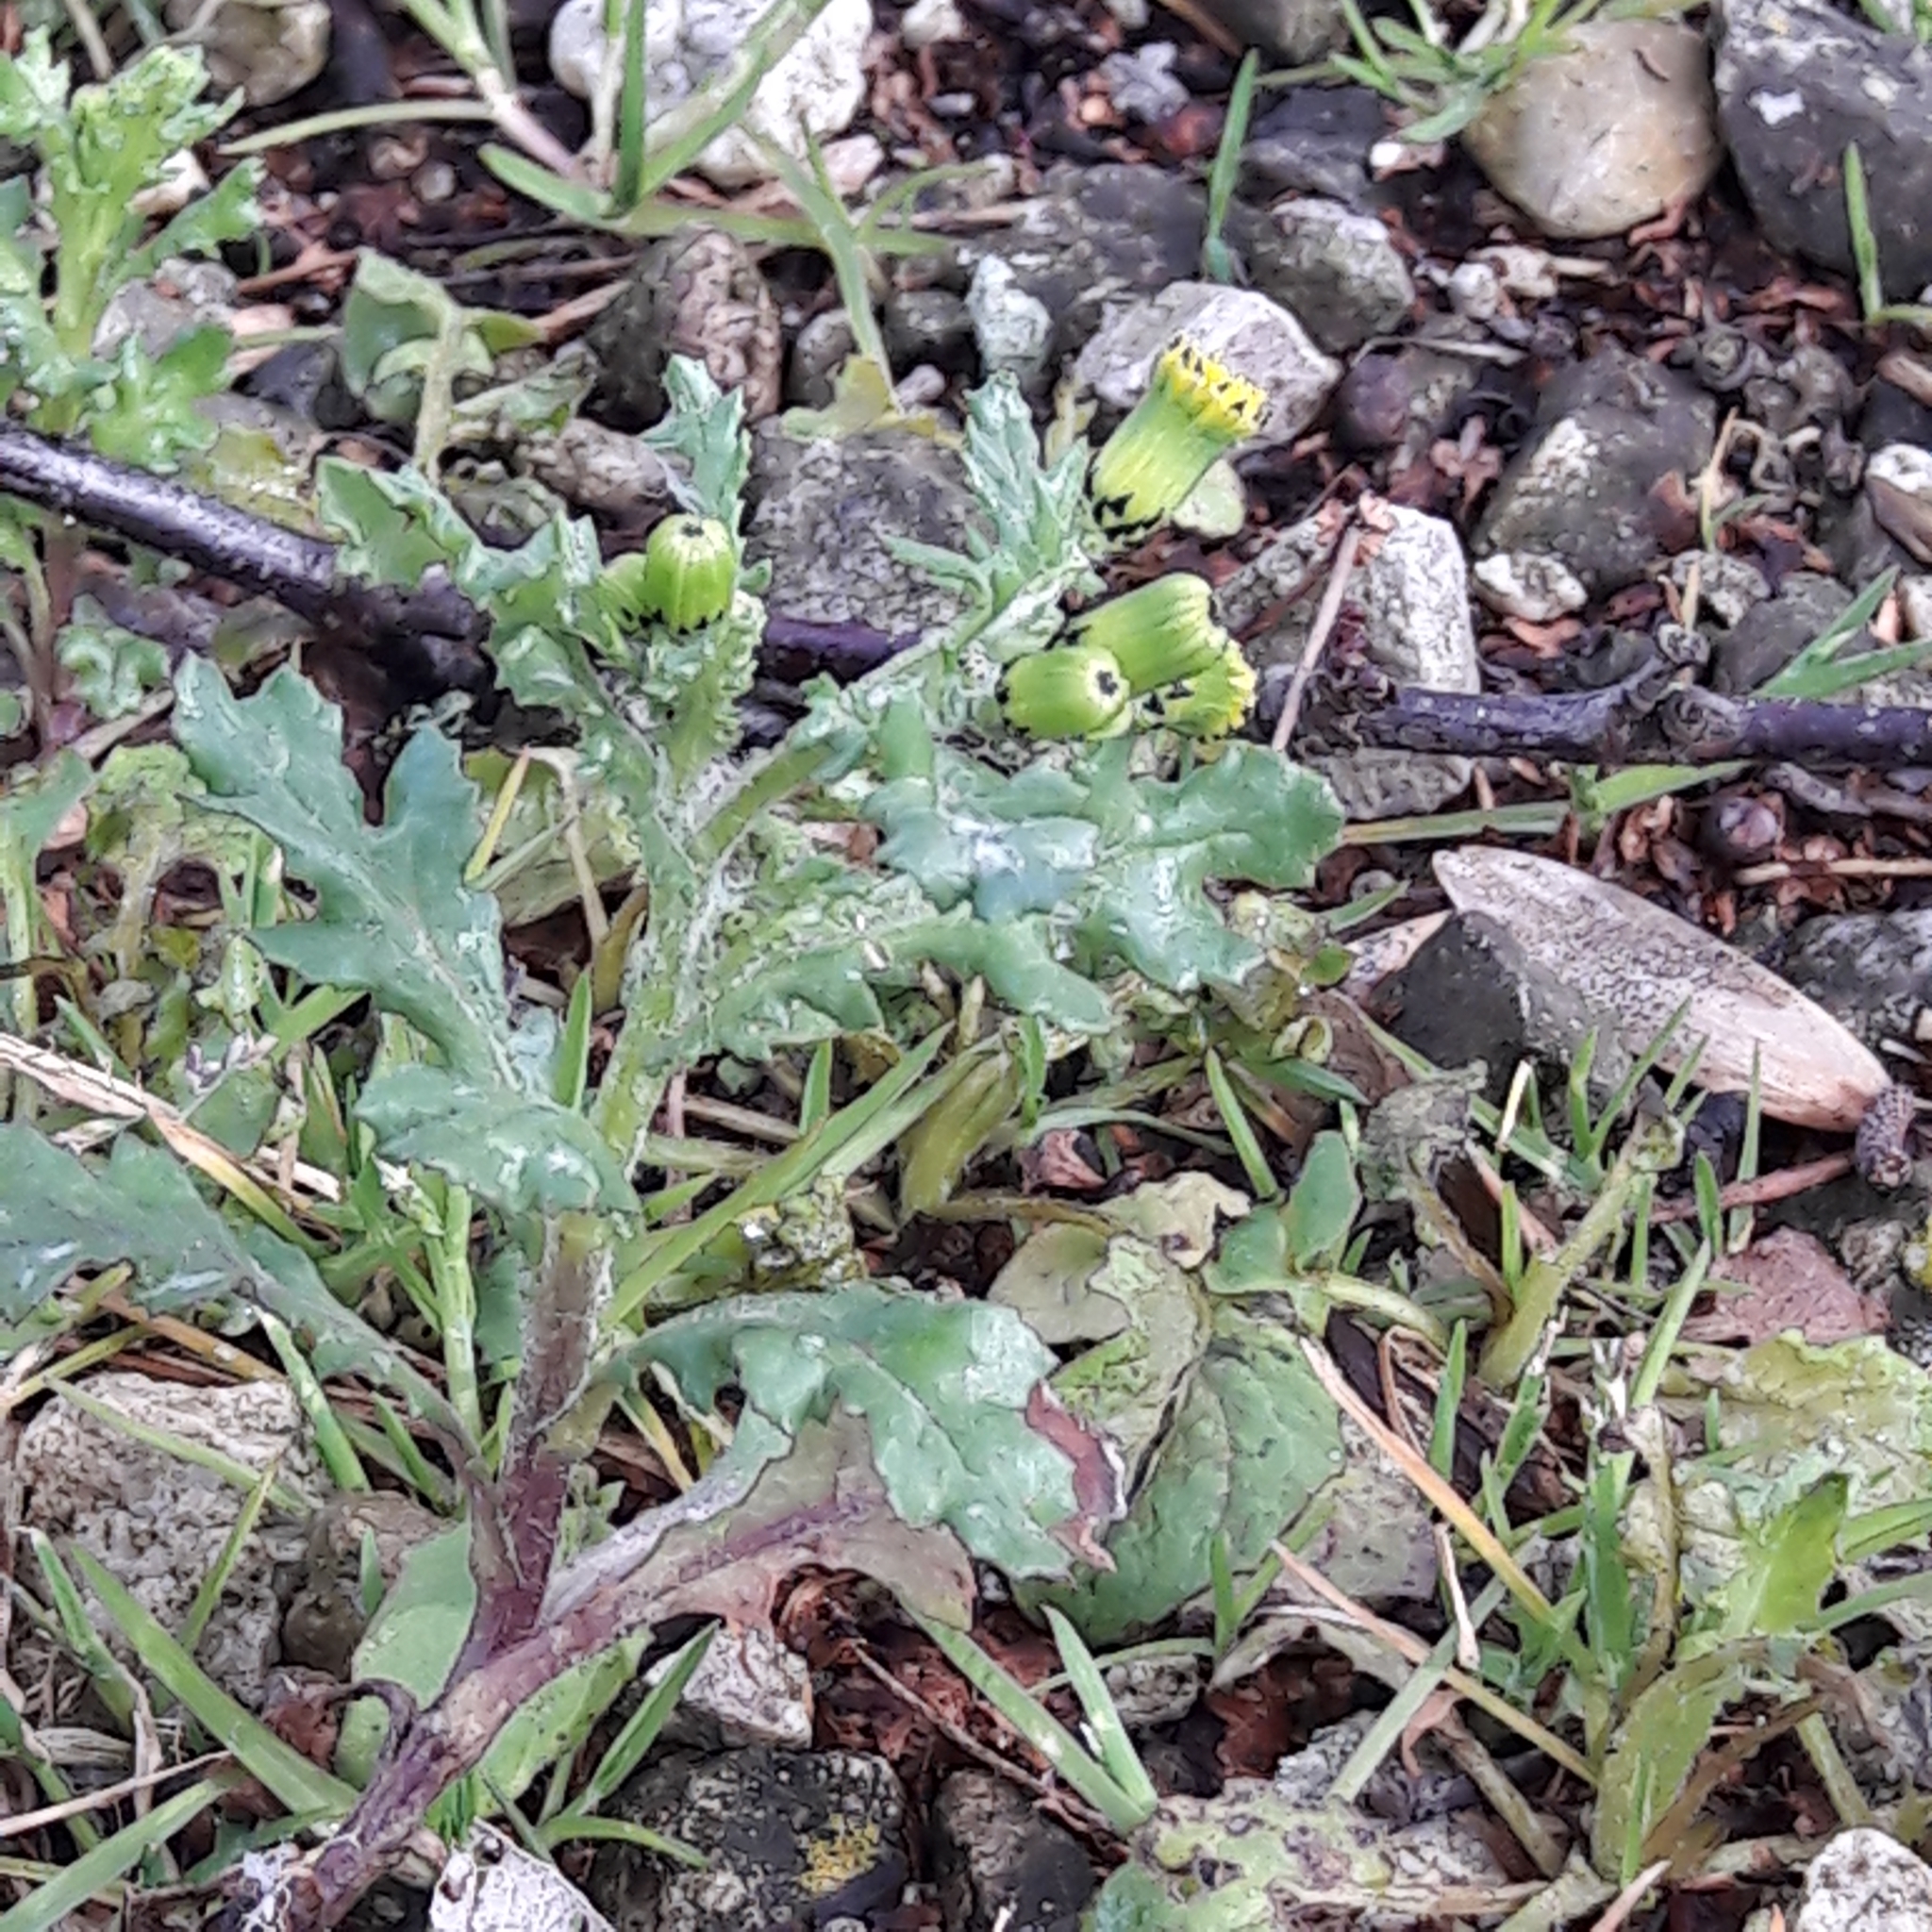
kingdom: Plantae
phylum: Tracheophyta
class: Magnoliopsida
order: Asterales
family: Asteraceae
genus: Senecio
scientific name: Senecio vulgaris
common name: Old-man-in-the-spring
